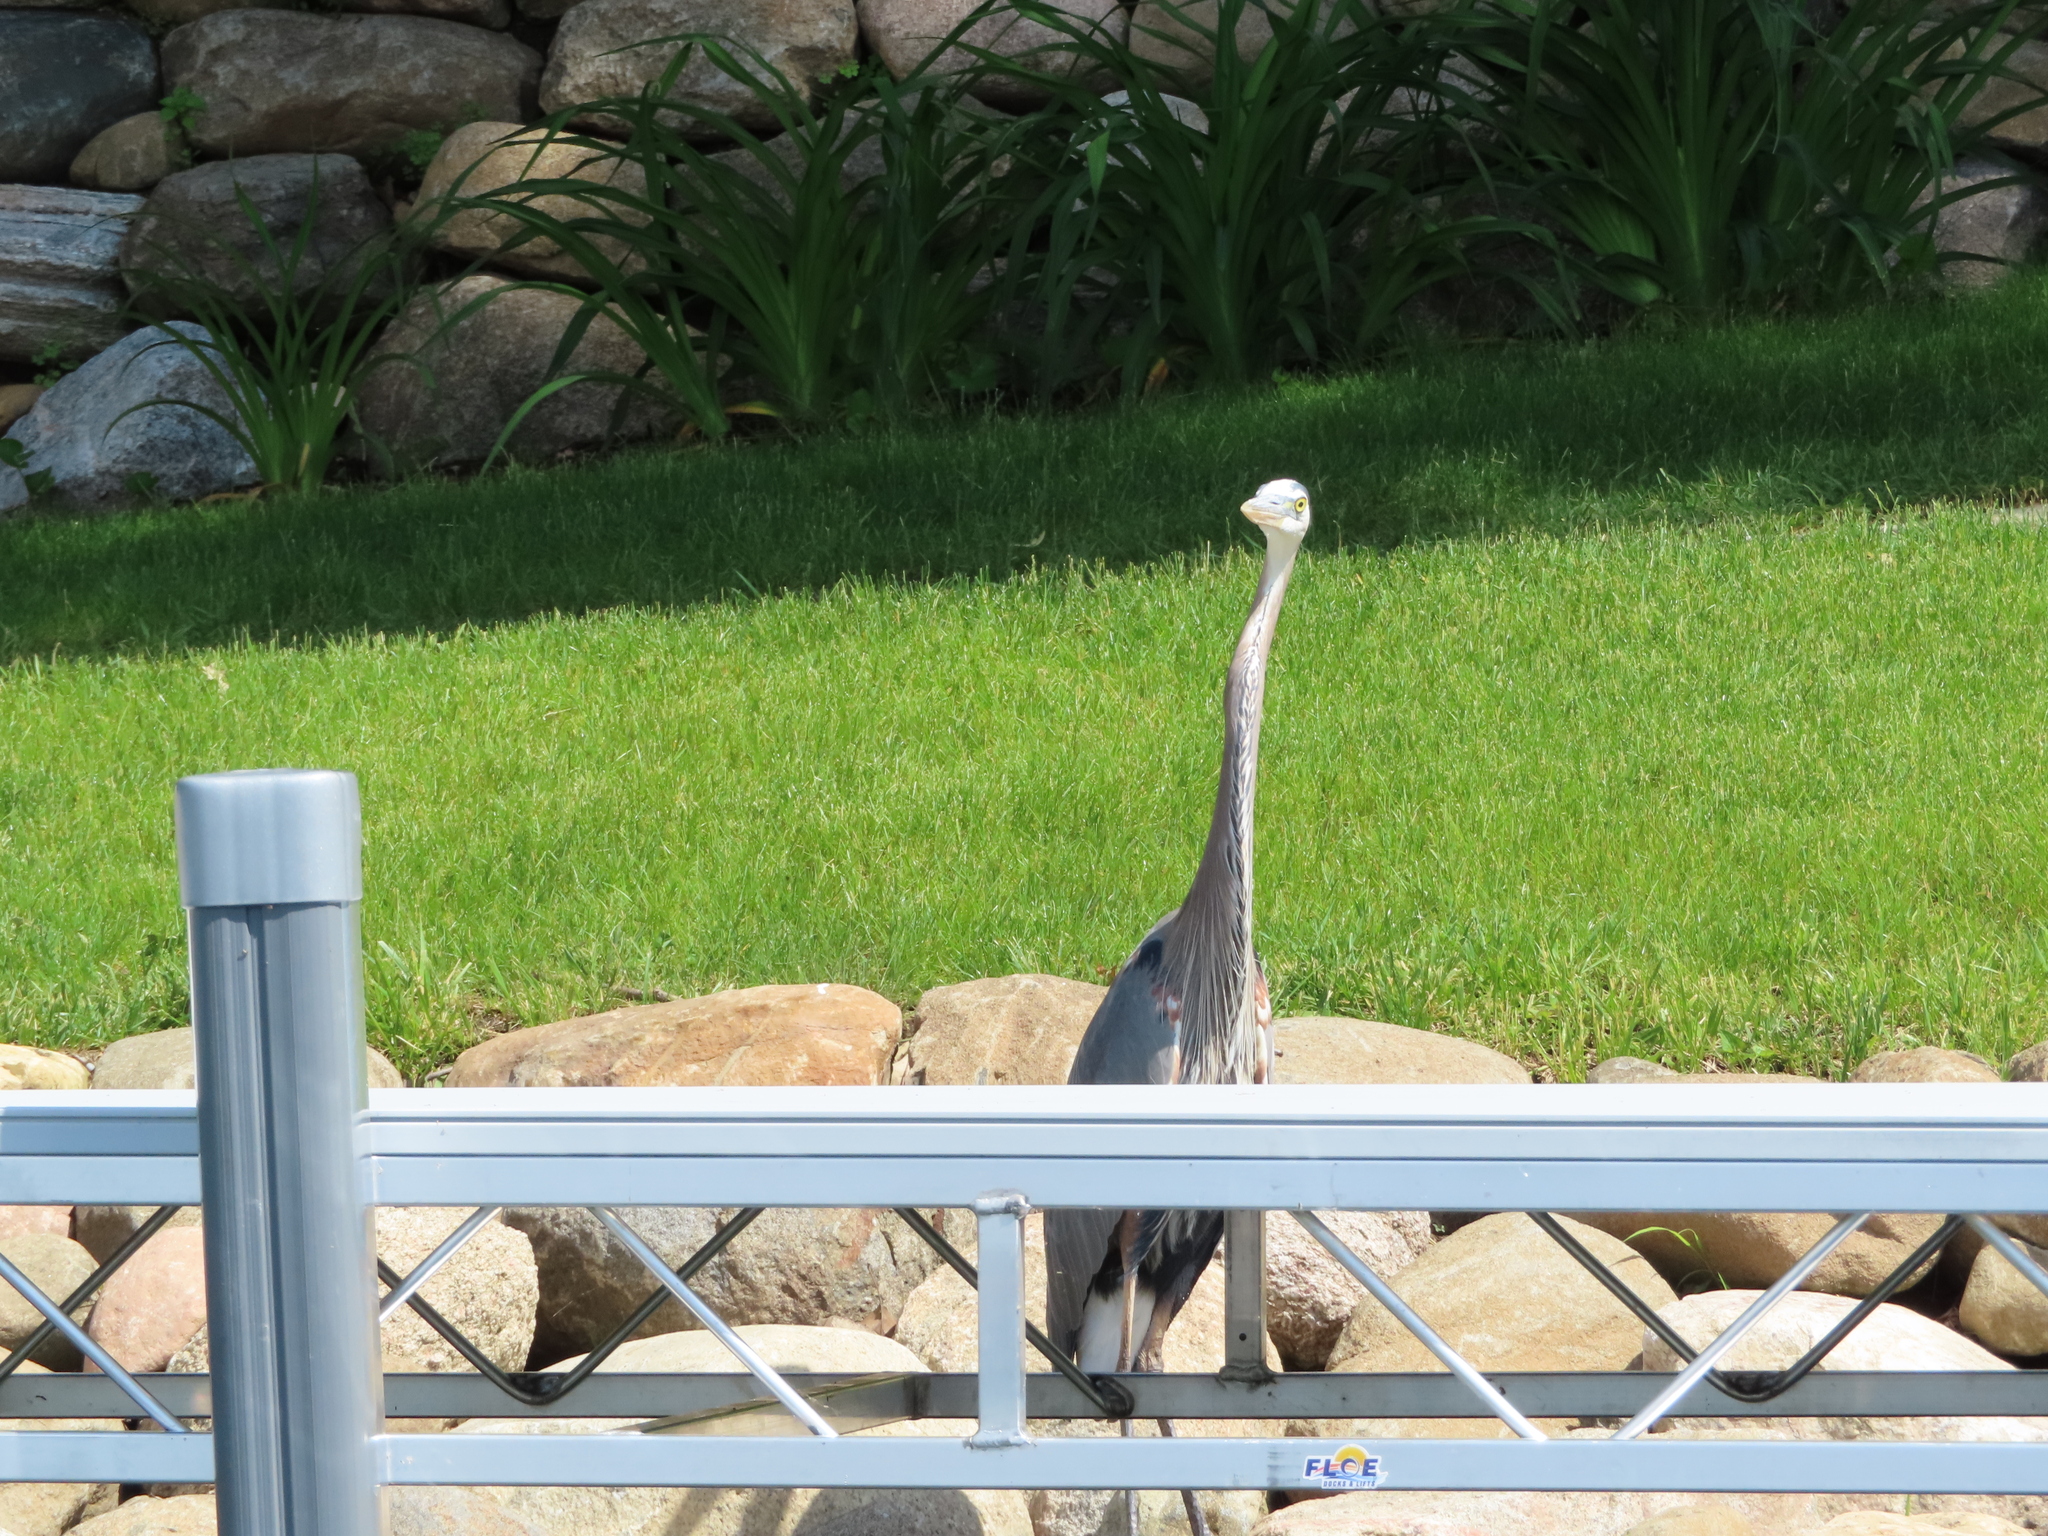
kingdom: Animalia
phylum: Chordata
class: Aves
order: Pelecaniformes
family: Ardeidae
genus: Ardea
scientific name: Ardea herodias
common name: Great blue heron
